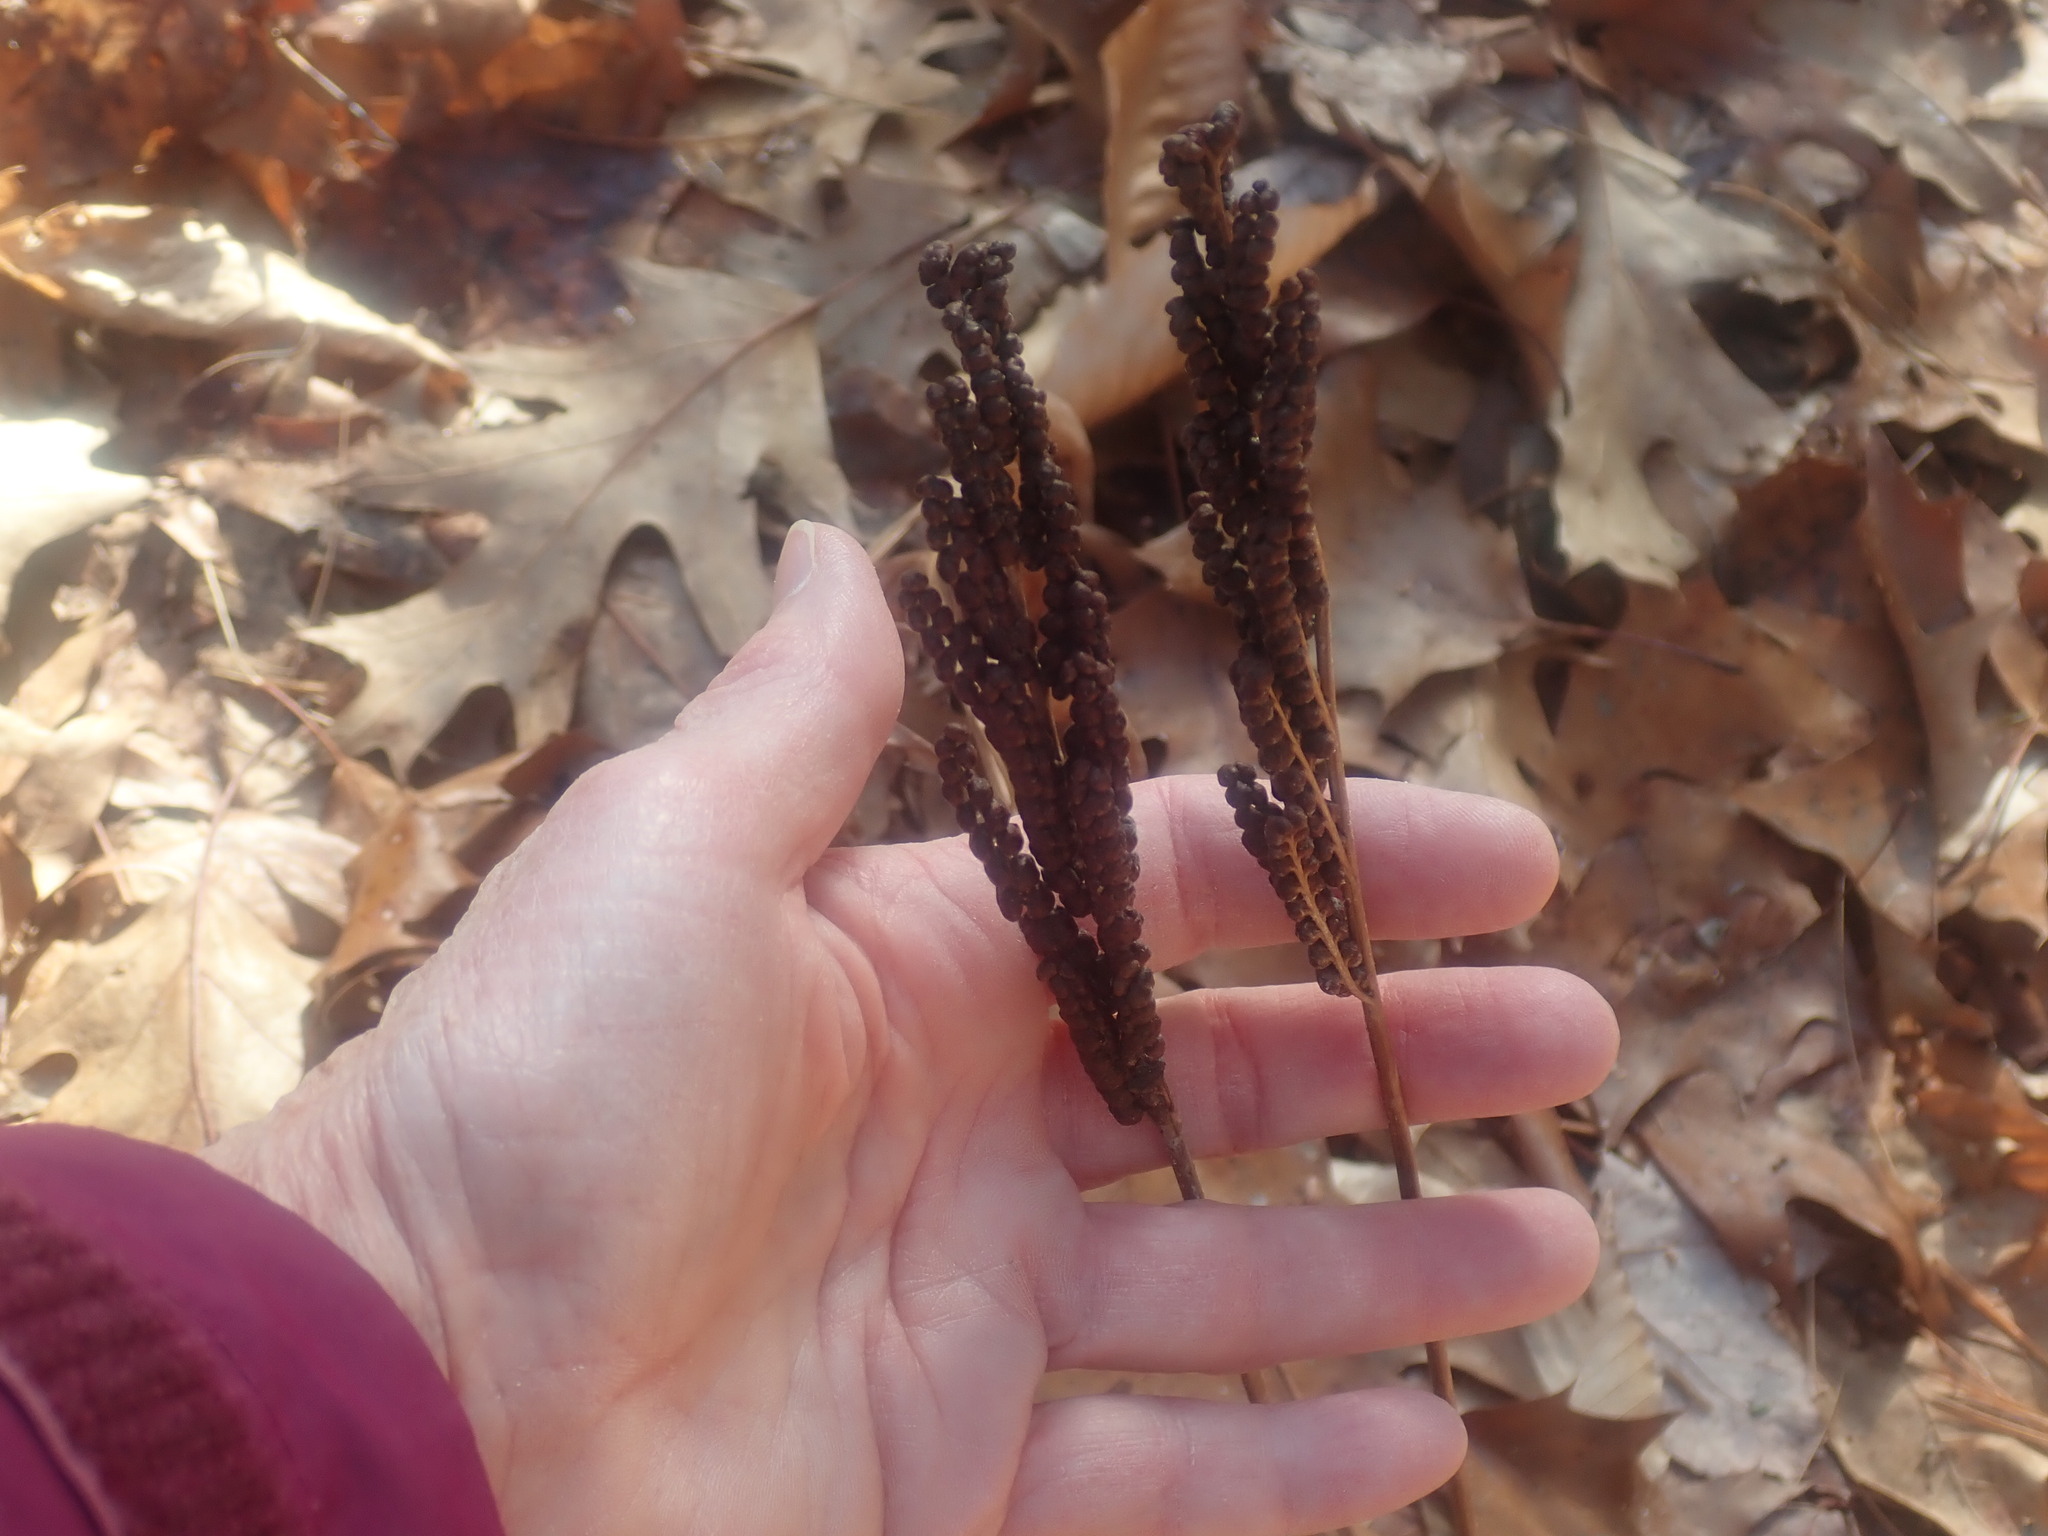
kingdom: Plantae
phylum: Tracheophyta
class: Polypodiopsida
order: Polypodiales
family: Onocleaceae
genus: Onoclea
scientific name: Onoclea sensibilis
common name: Sensitive fern
